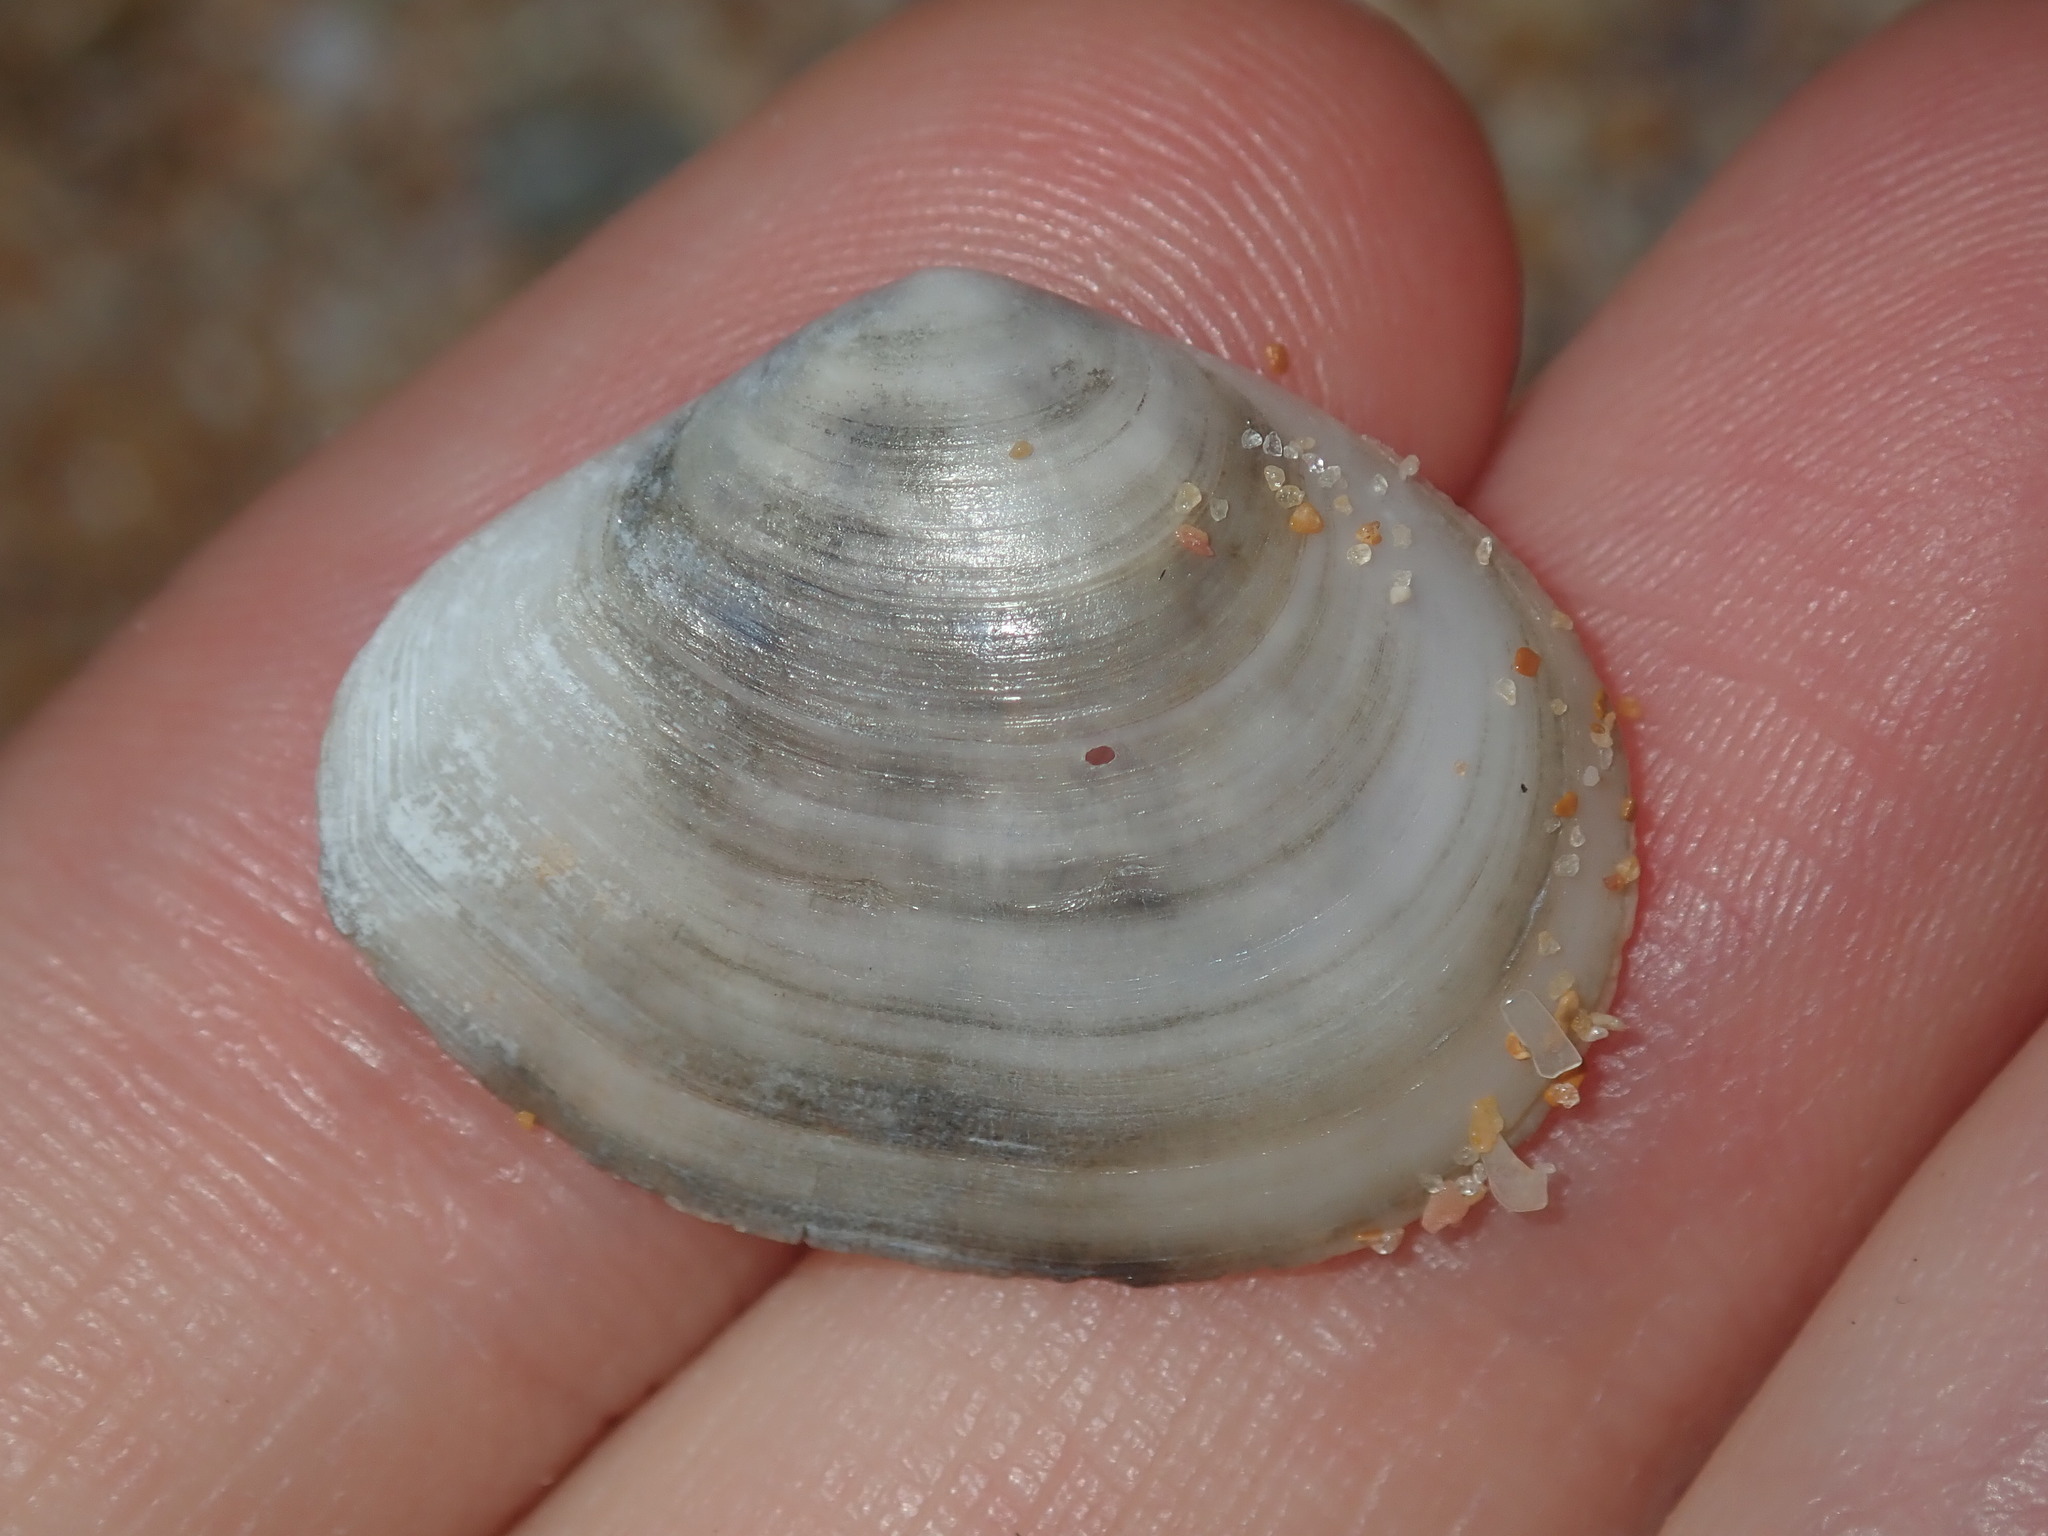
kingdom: Animalia
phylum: Mollusca
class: Bivalvia
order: Cardiida
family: Tellinidae
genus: Macomona
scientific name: Macomona deltoidalis
